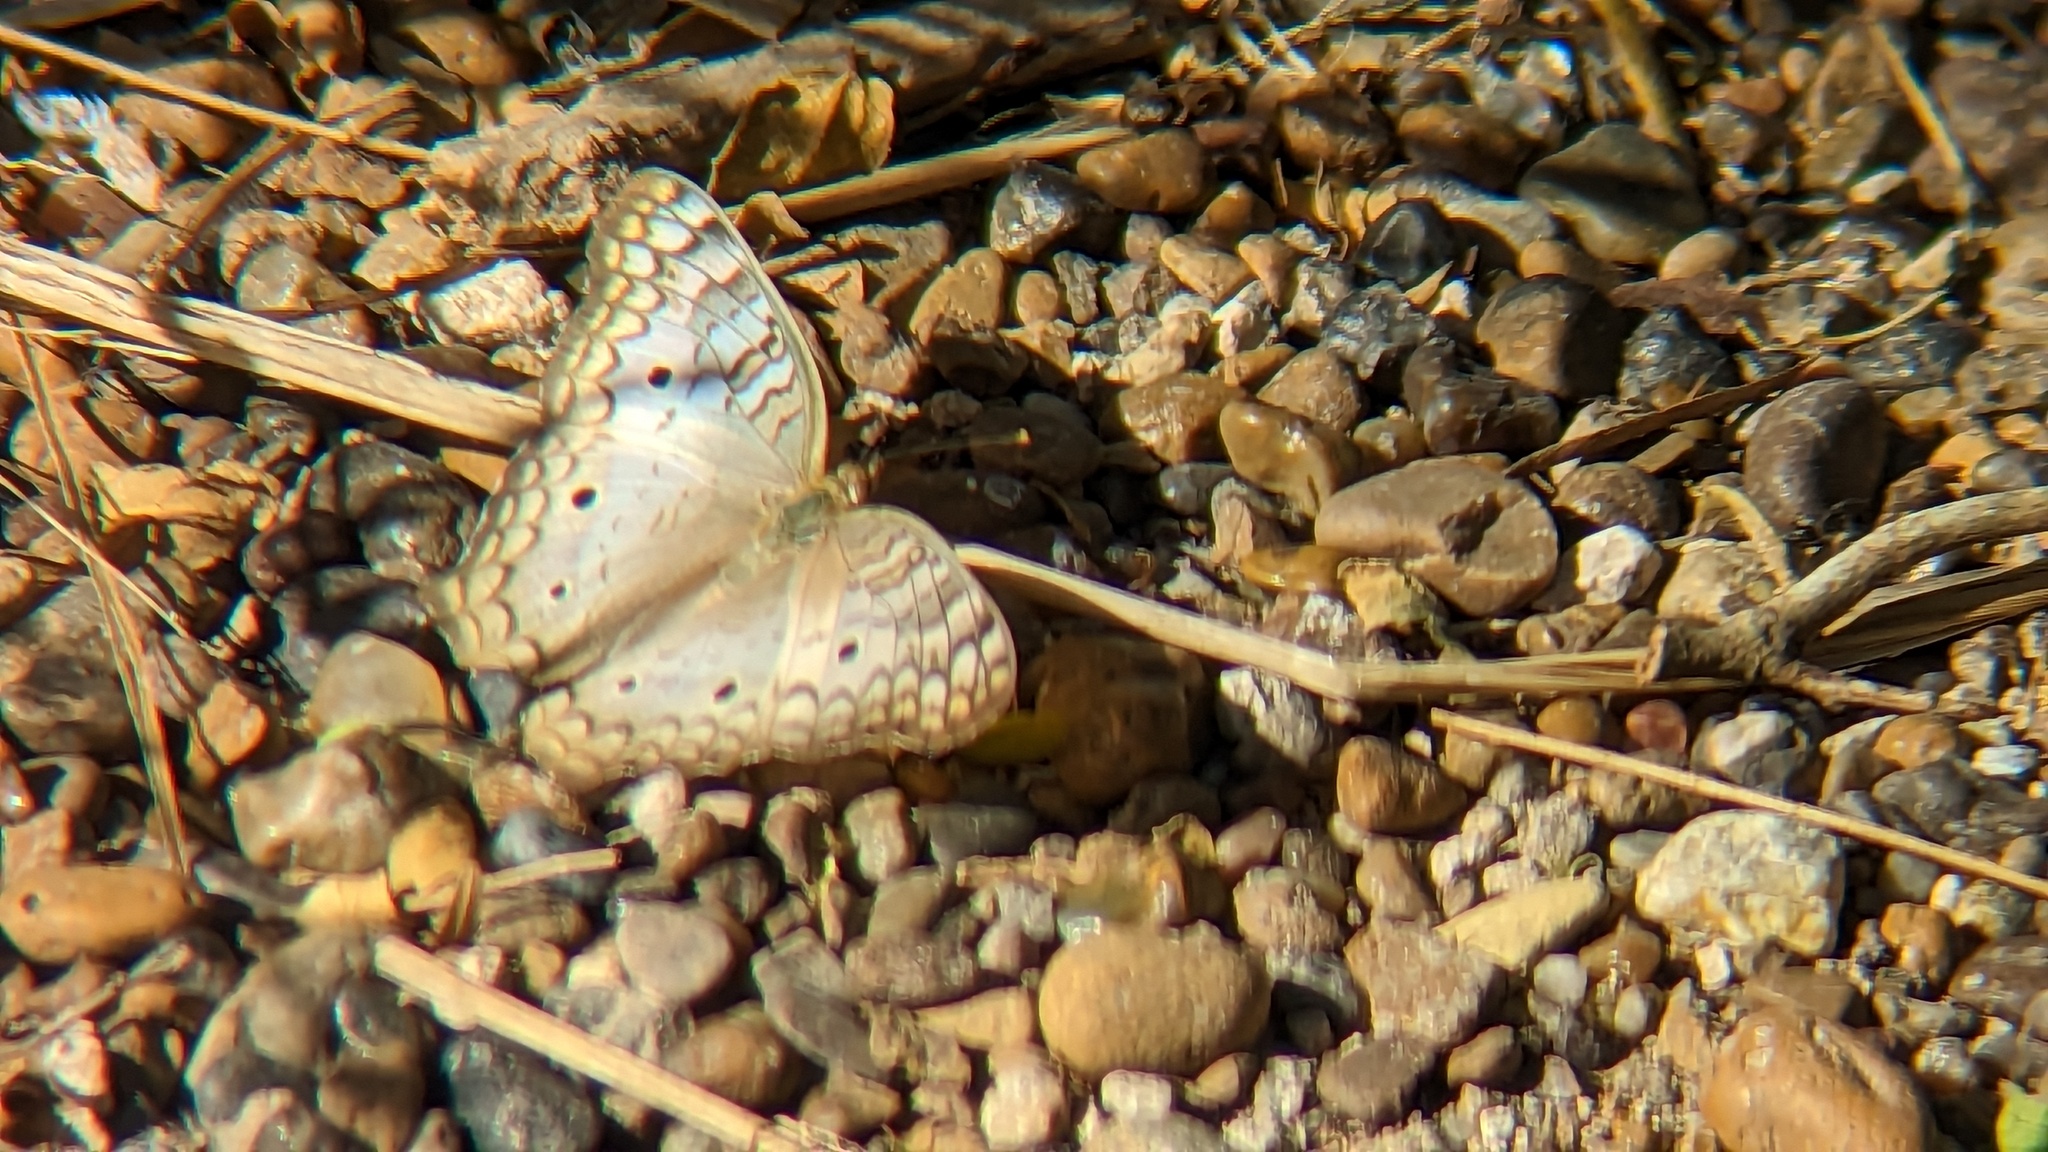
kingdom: Animalia
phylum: Arthropoda
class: Insecta
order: Lepidoptera
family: Nymphalidae
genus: Anartia
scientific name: Anartia jatrophae
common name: White peacock
